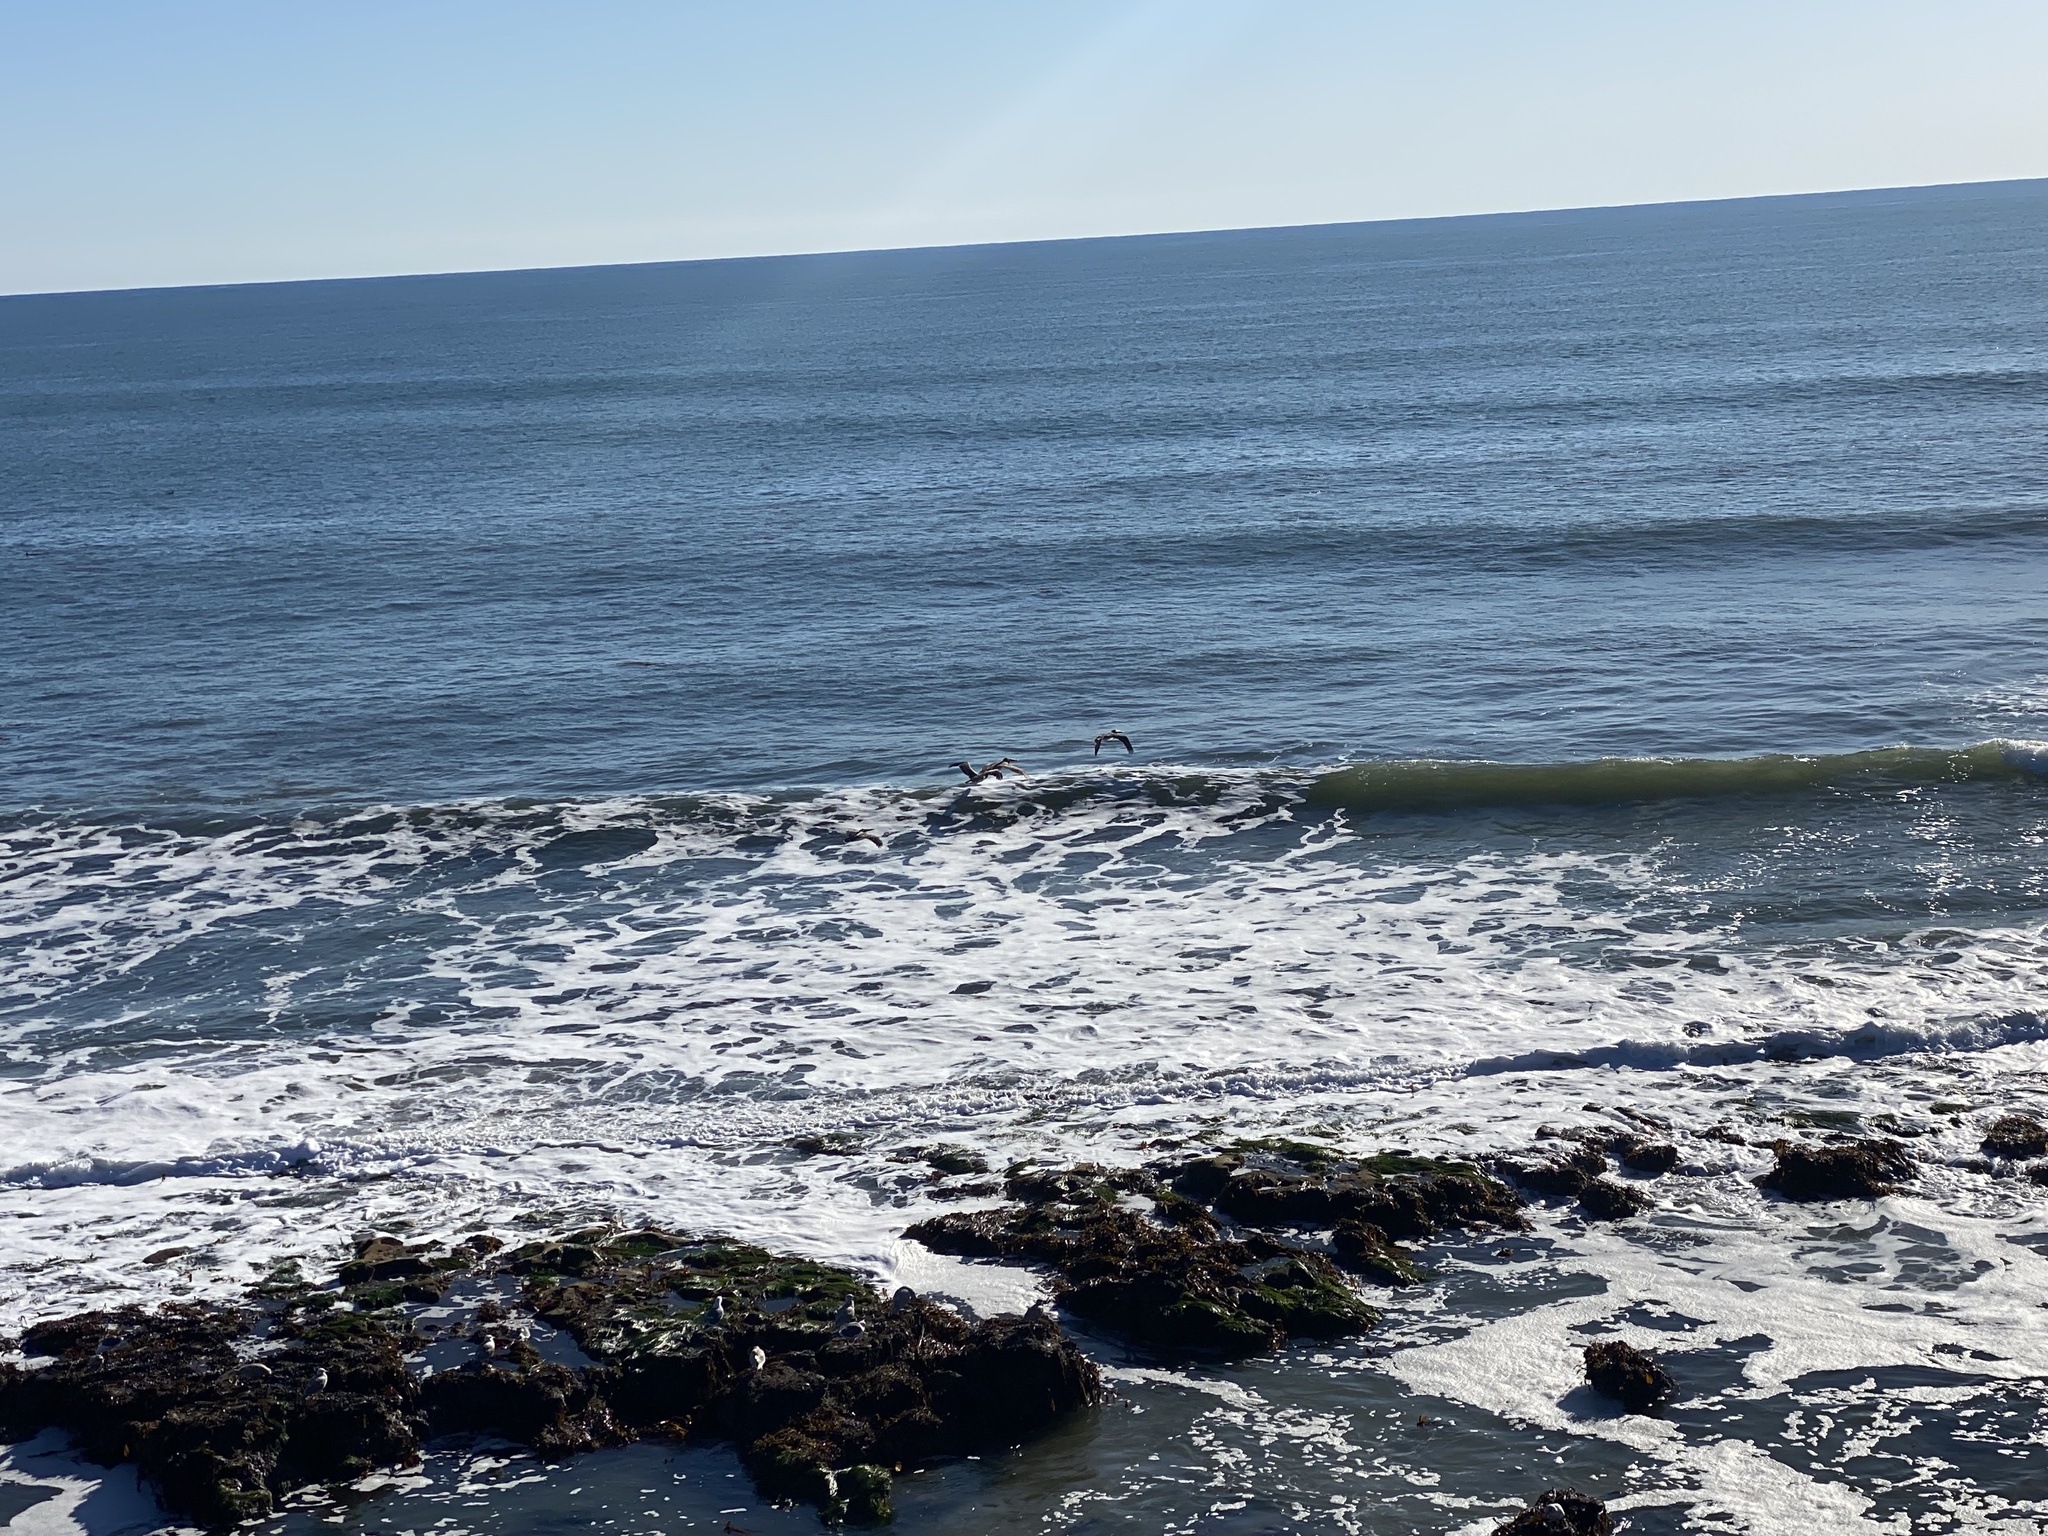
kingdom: Animalia
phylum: Chordata
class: Aves
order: Charadriiformes
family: Laridae
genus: Larus
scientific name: Larus occidentalis
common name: Western gull
